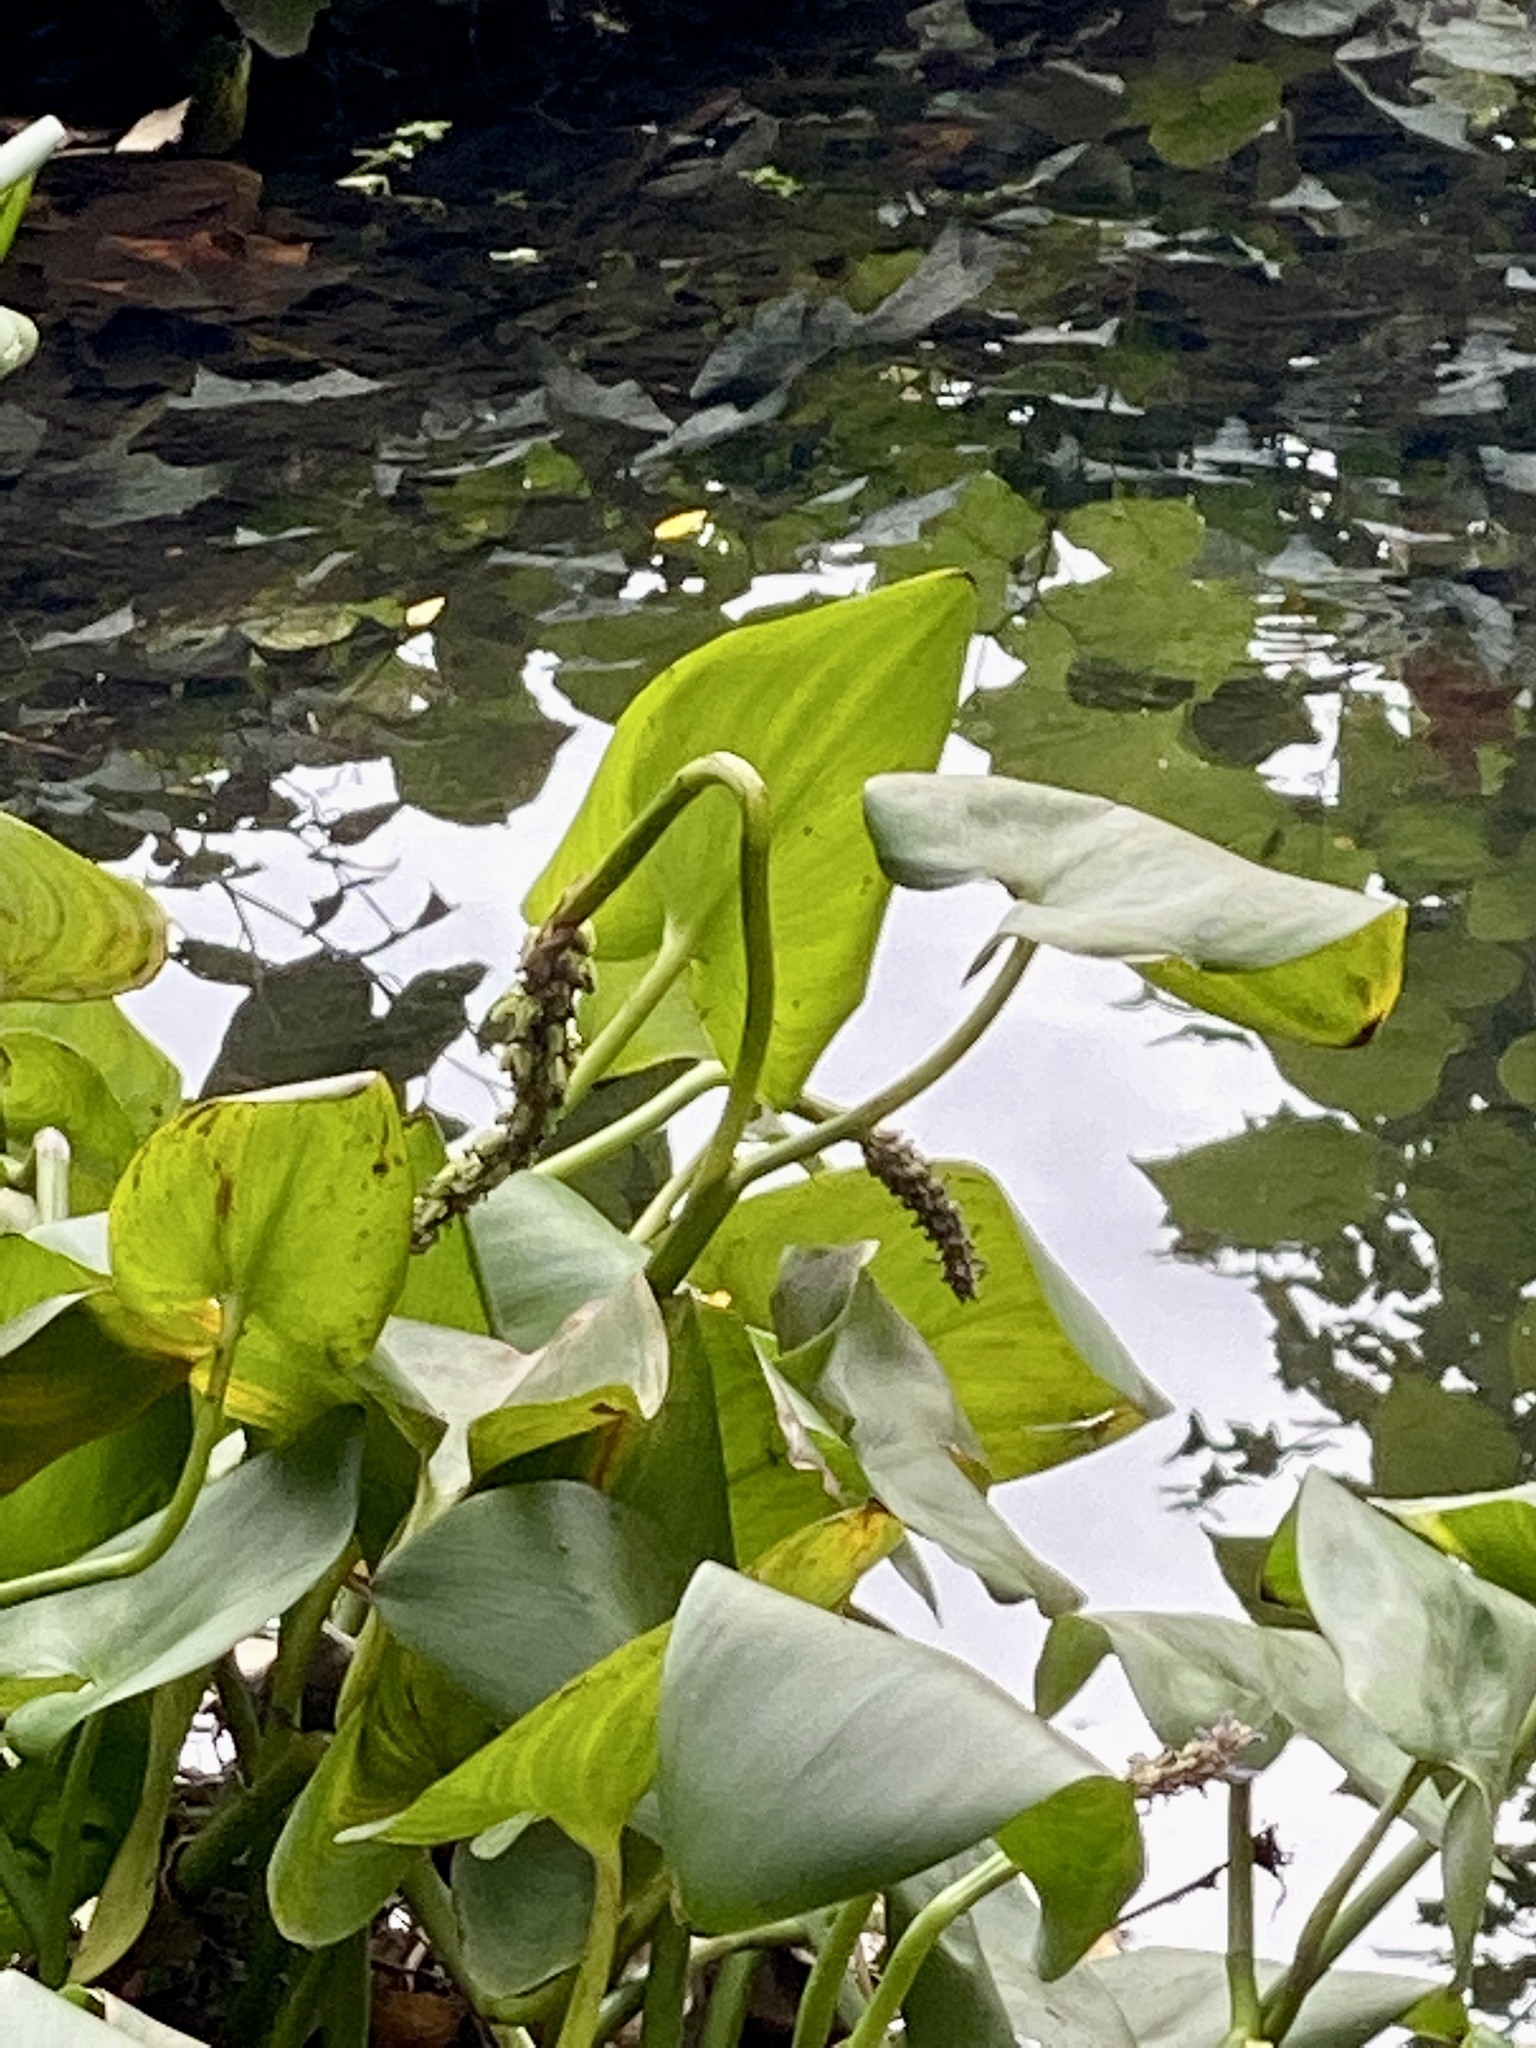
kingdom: Plantae
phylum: Tracheophyta
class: Liliopsida
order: Commelinales
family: Pontederiaceae
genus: Pontederia
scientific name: Pontederia cordata
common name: Pickerelweed
